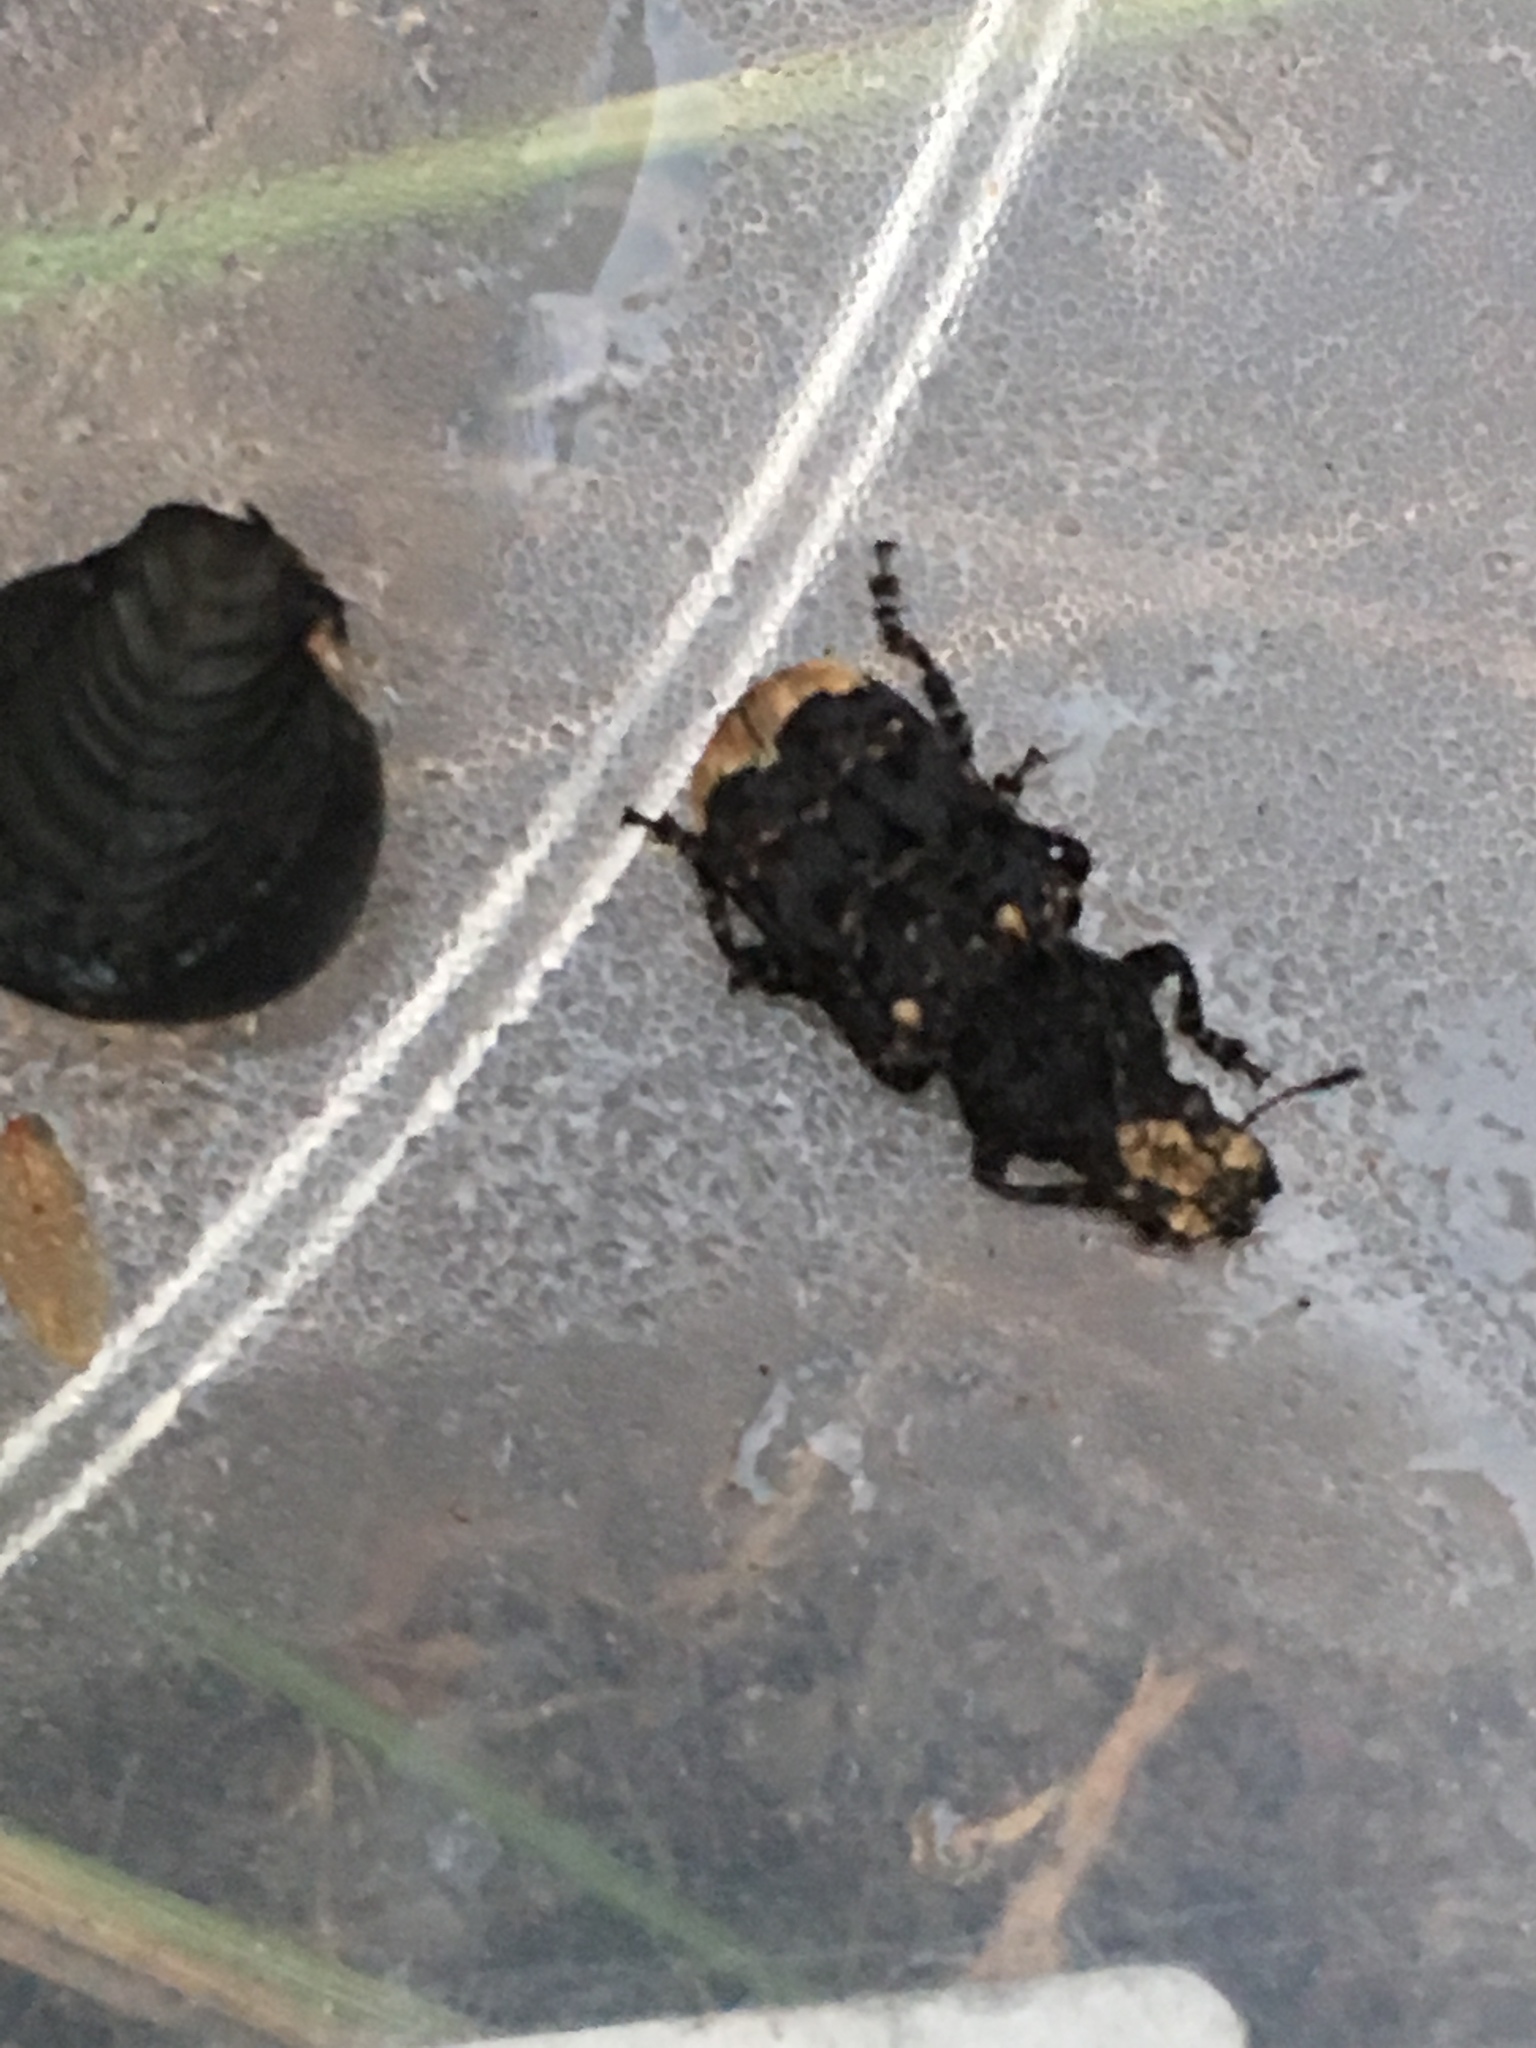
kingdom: Animalia
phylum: Arthropoda
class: Insecta
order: Coleoptera
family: Anthribidae
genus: Platyrhinus
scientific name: Platyrhinus resinosus
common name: Cramp-ball fungus weevil
